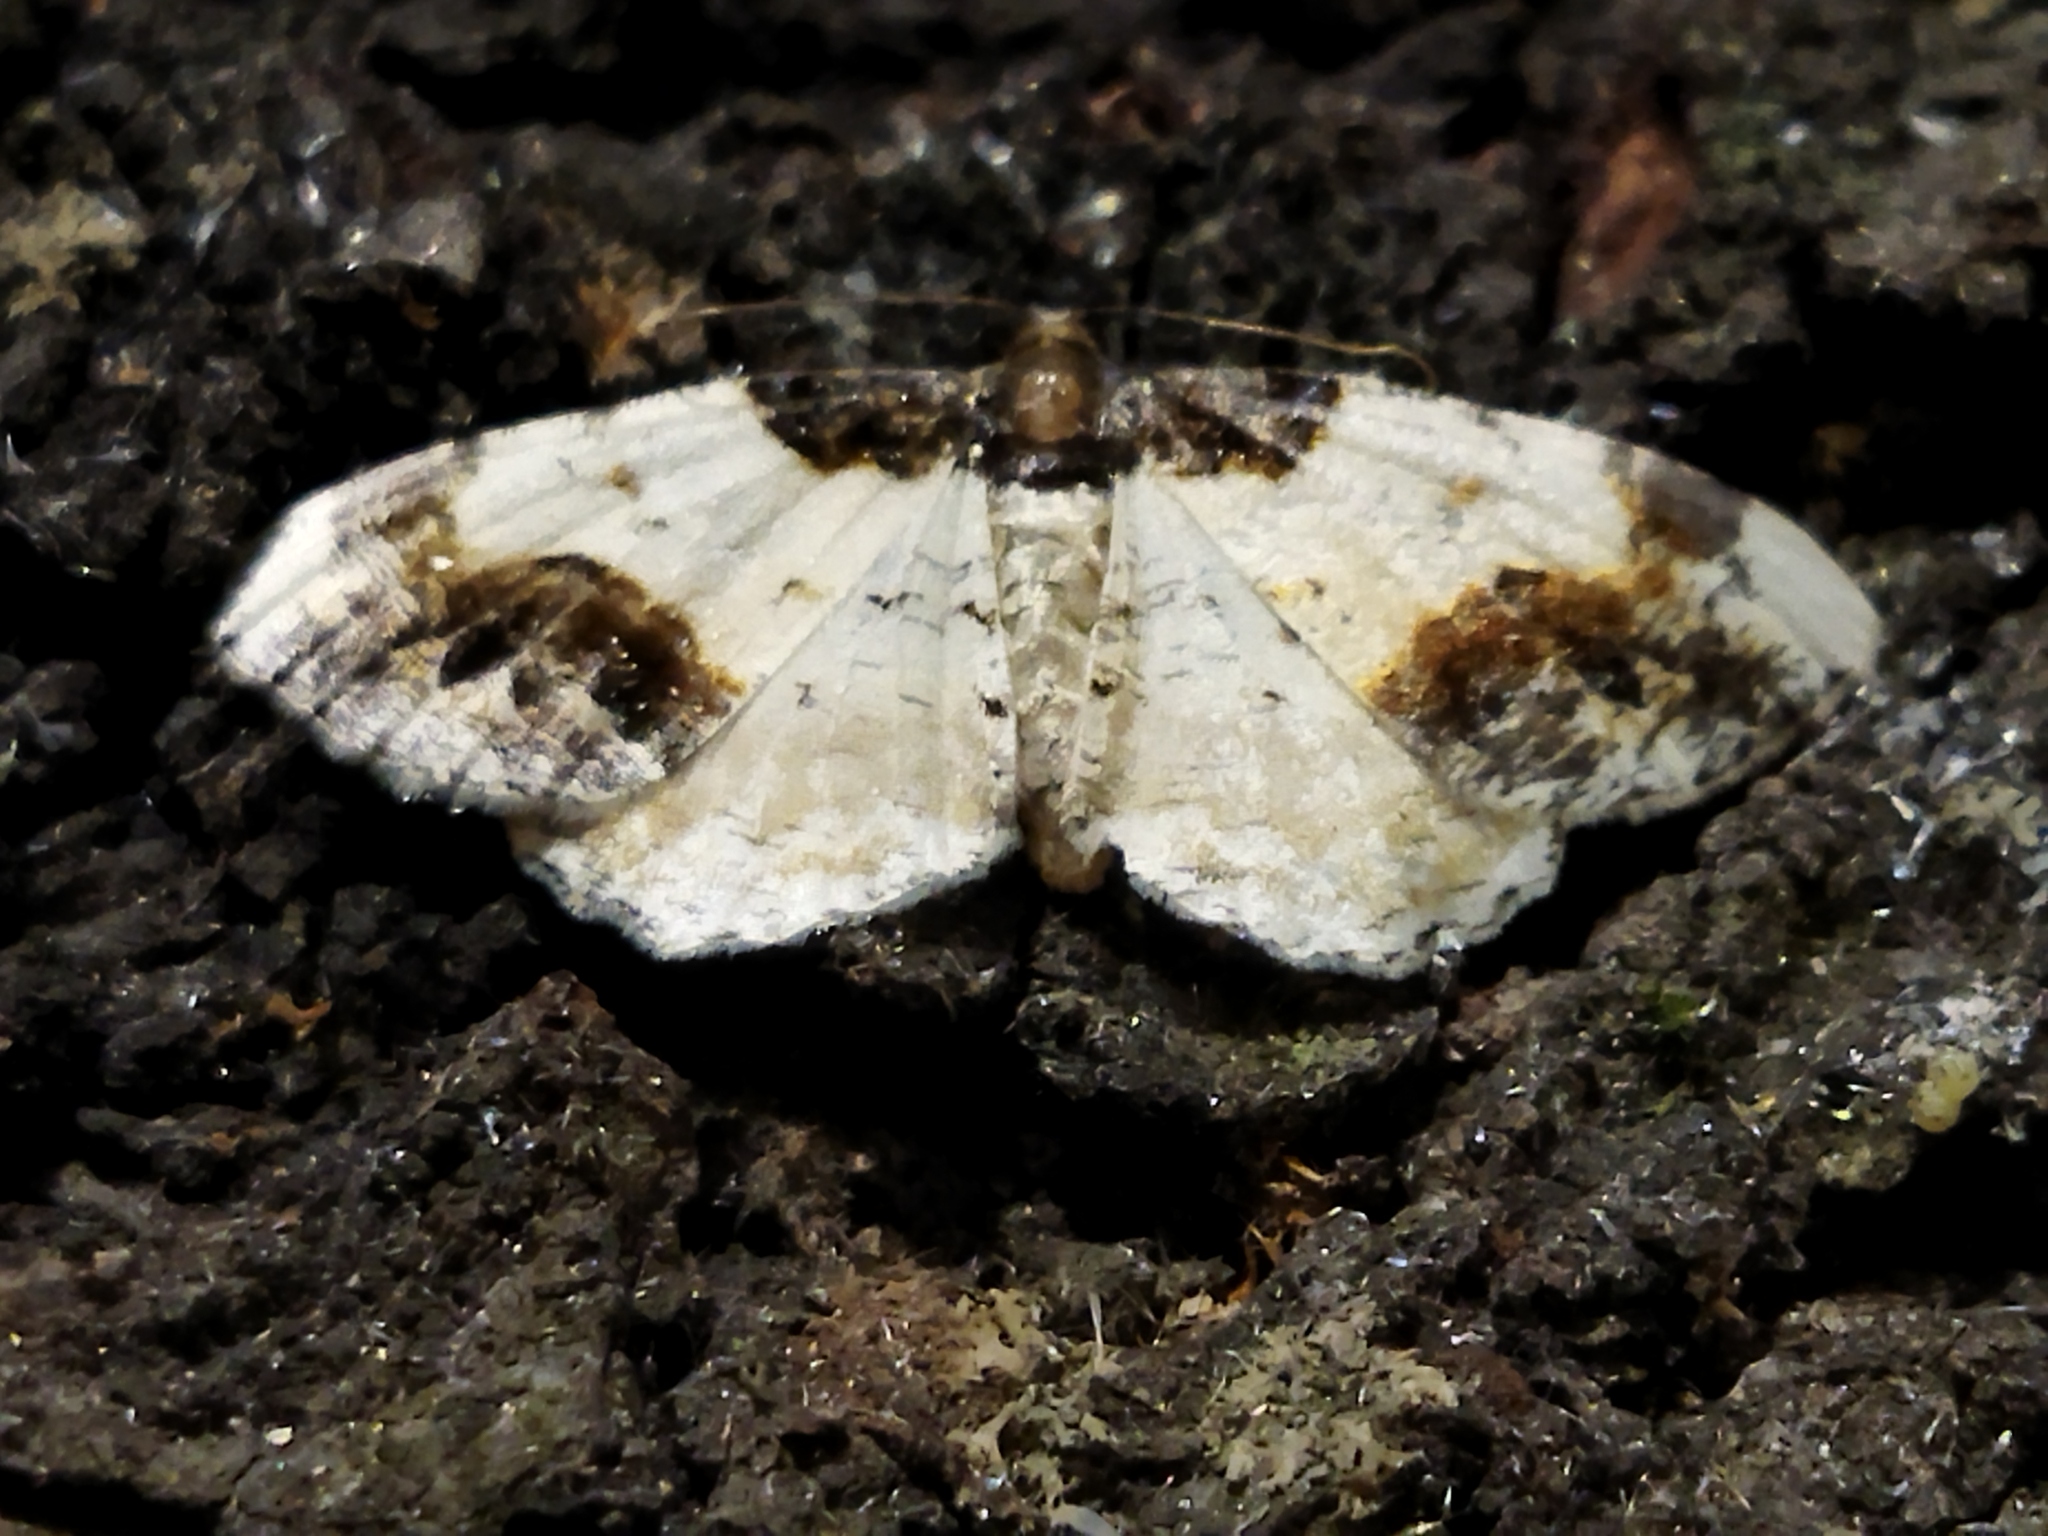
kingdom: Animalia
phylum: Arthropoda
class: Insecta
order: Lepidoptera
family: Geometridae
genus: Ligdia
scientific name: Ligdia adustata
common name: Scorched carpet
